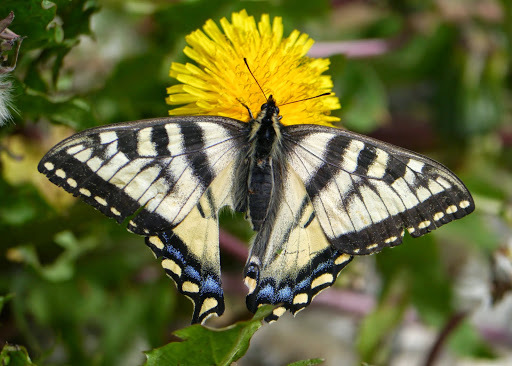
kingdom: Animalia
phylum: Arthropoda
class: Insecta
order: Lepidoptera
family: Papilionidae
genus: Papilio
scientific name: Papilio canadensis
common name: Canadian tiger swallowtail
